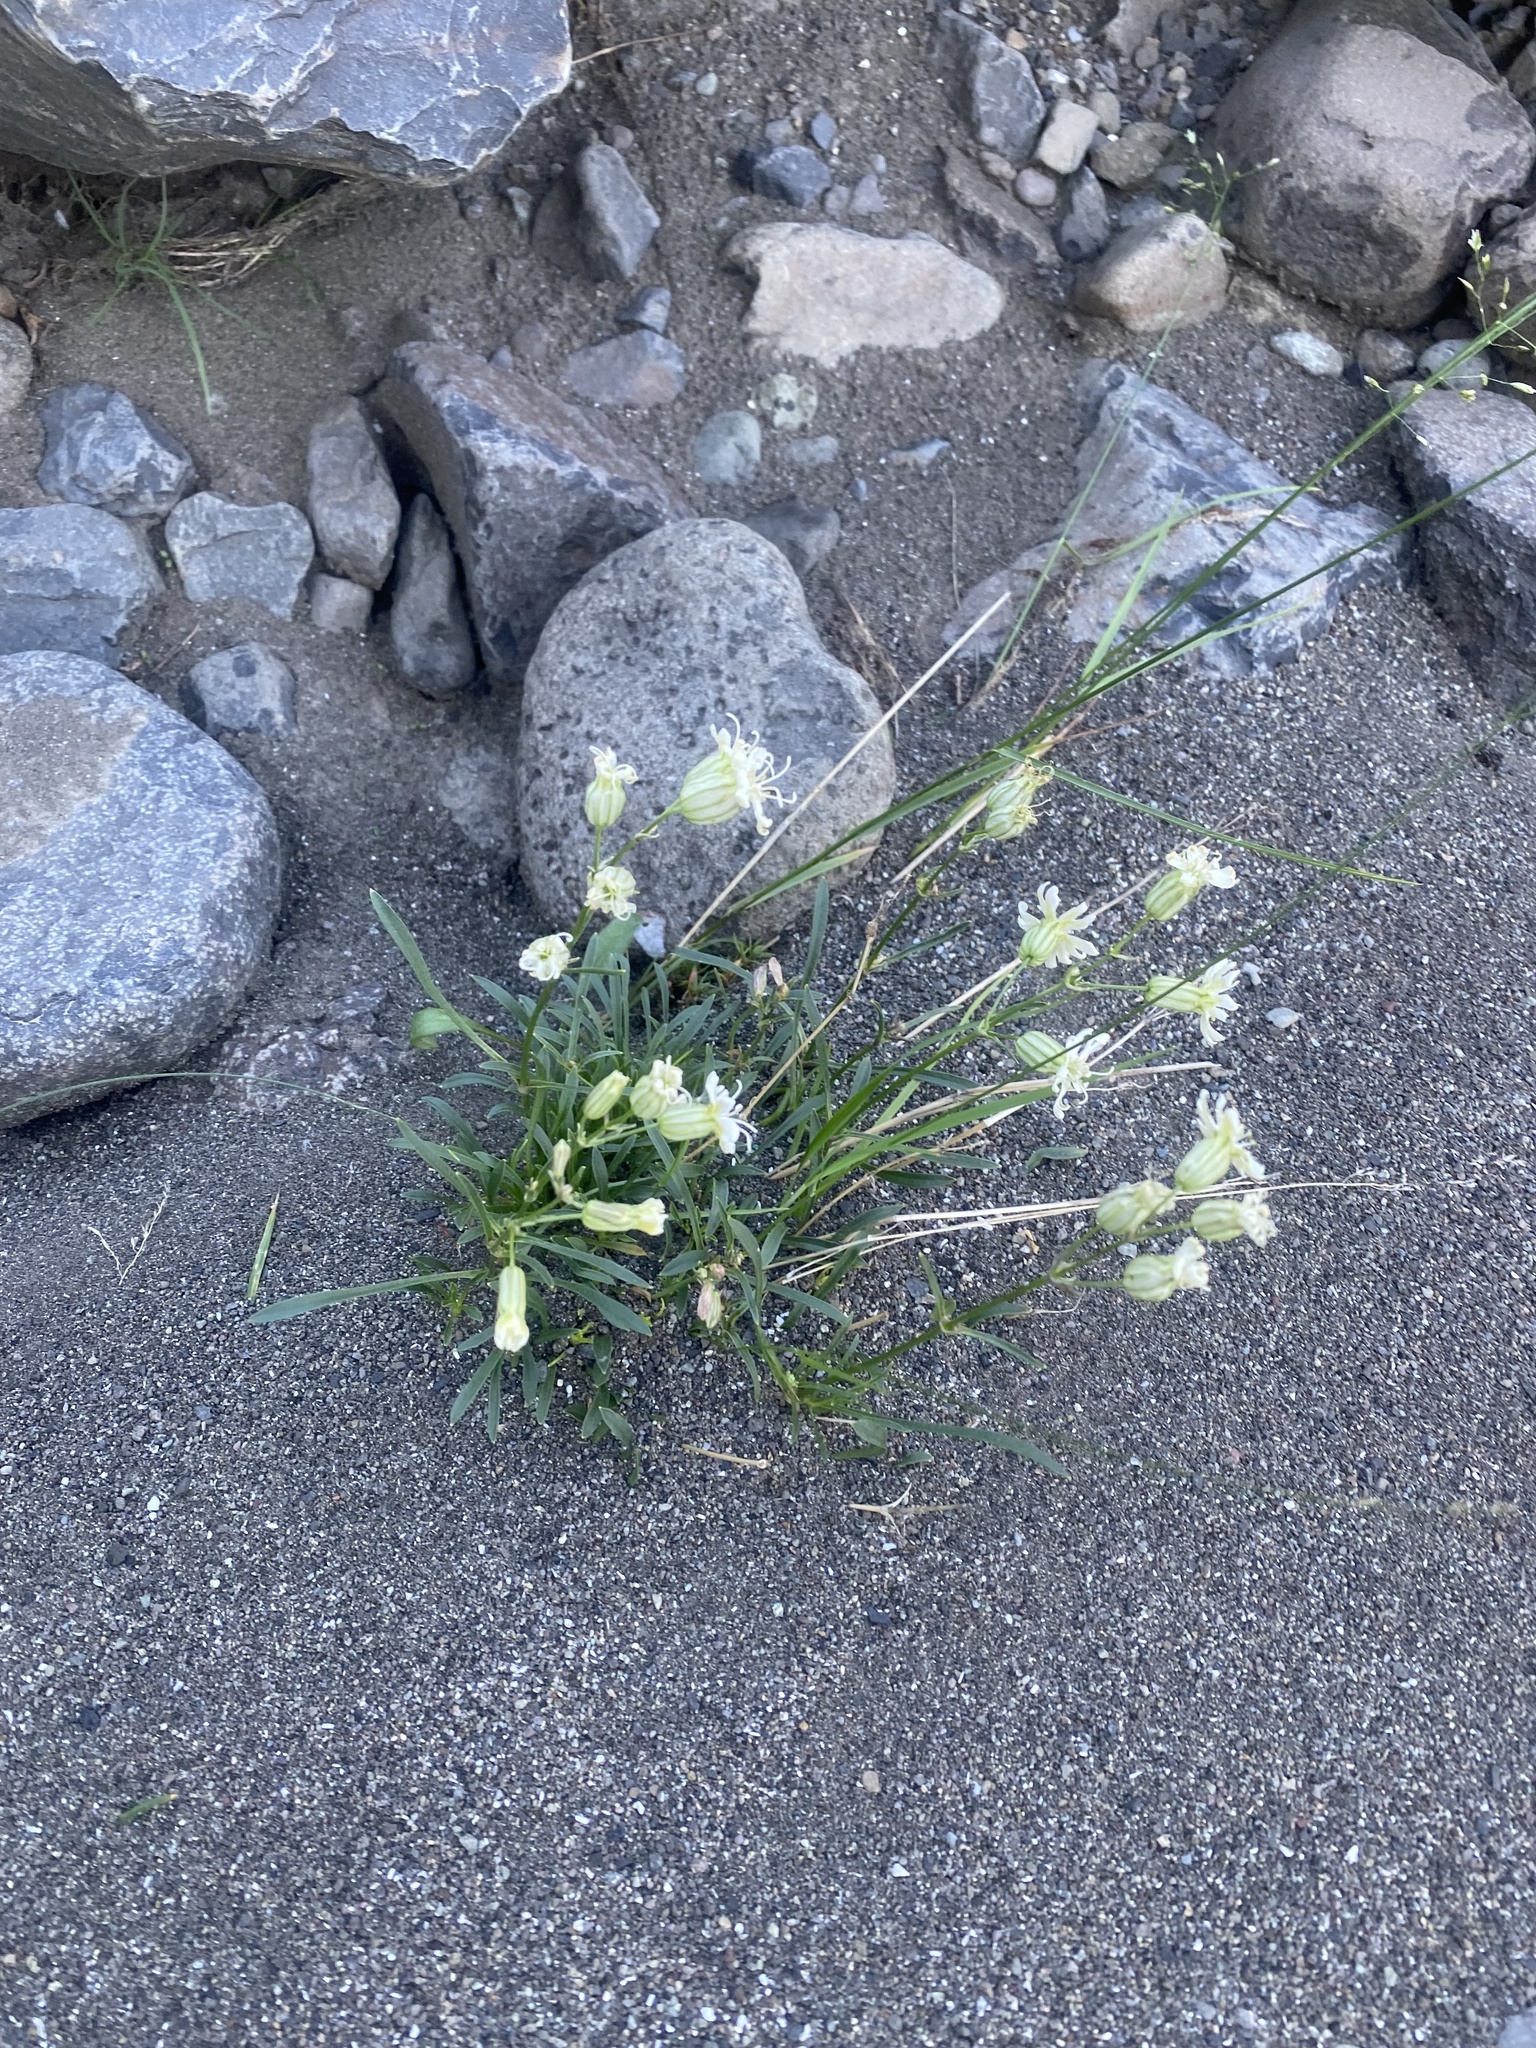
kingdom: Plantae
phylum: Tracheophyta
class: Magnoliopsida
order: Caryophyllales
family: Caryophyllaceae
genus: Silene
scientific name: Silene chamarensis
